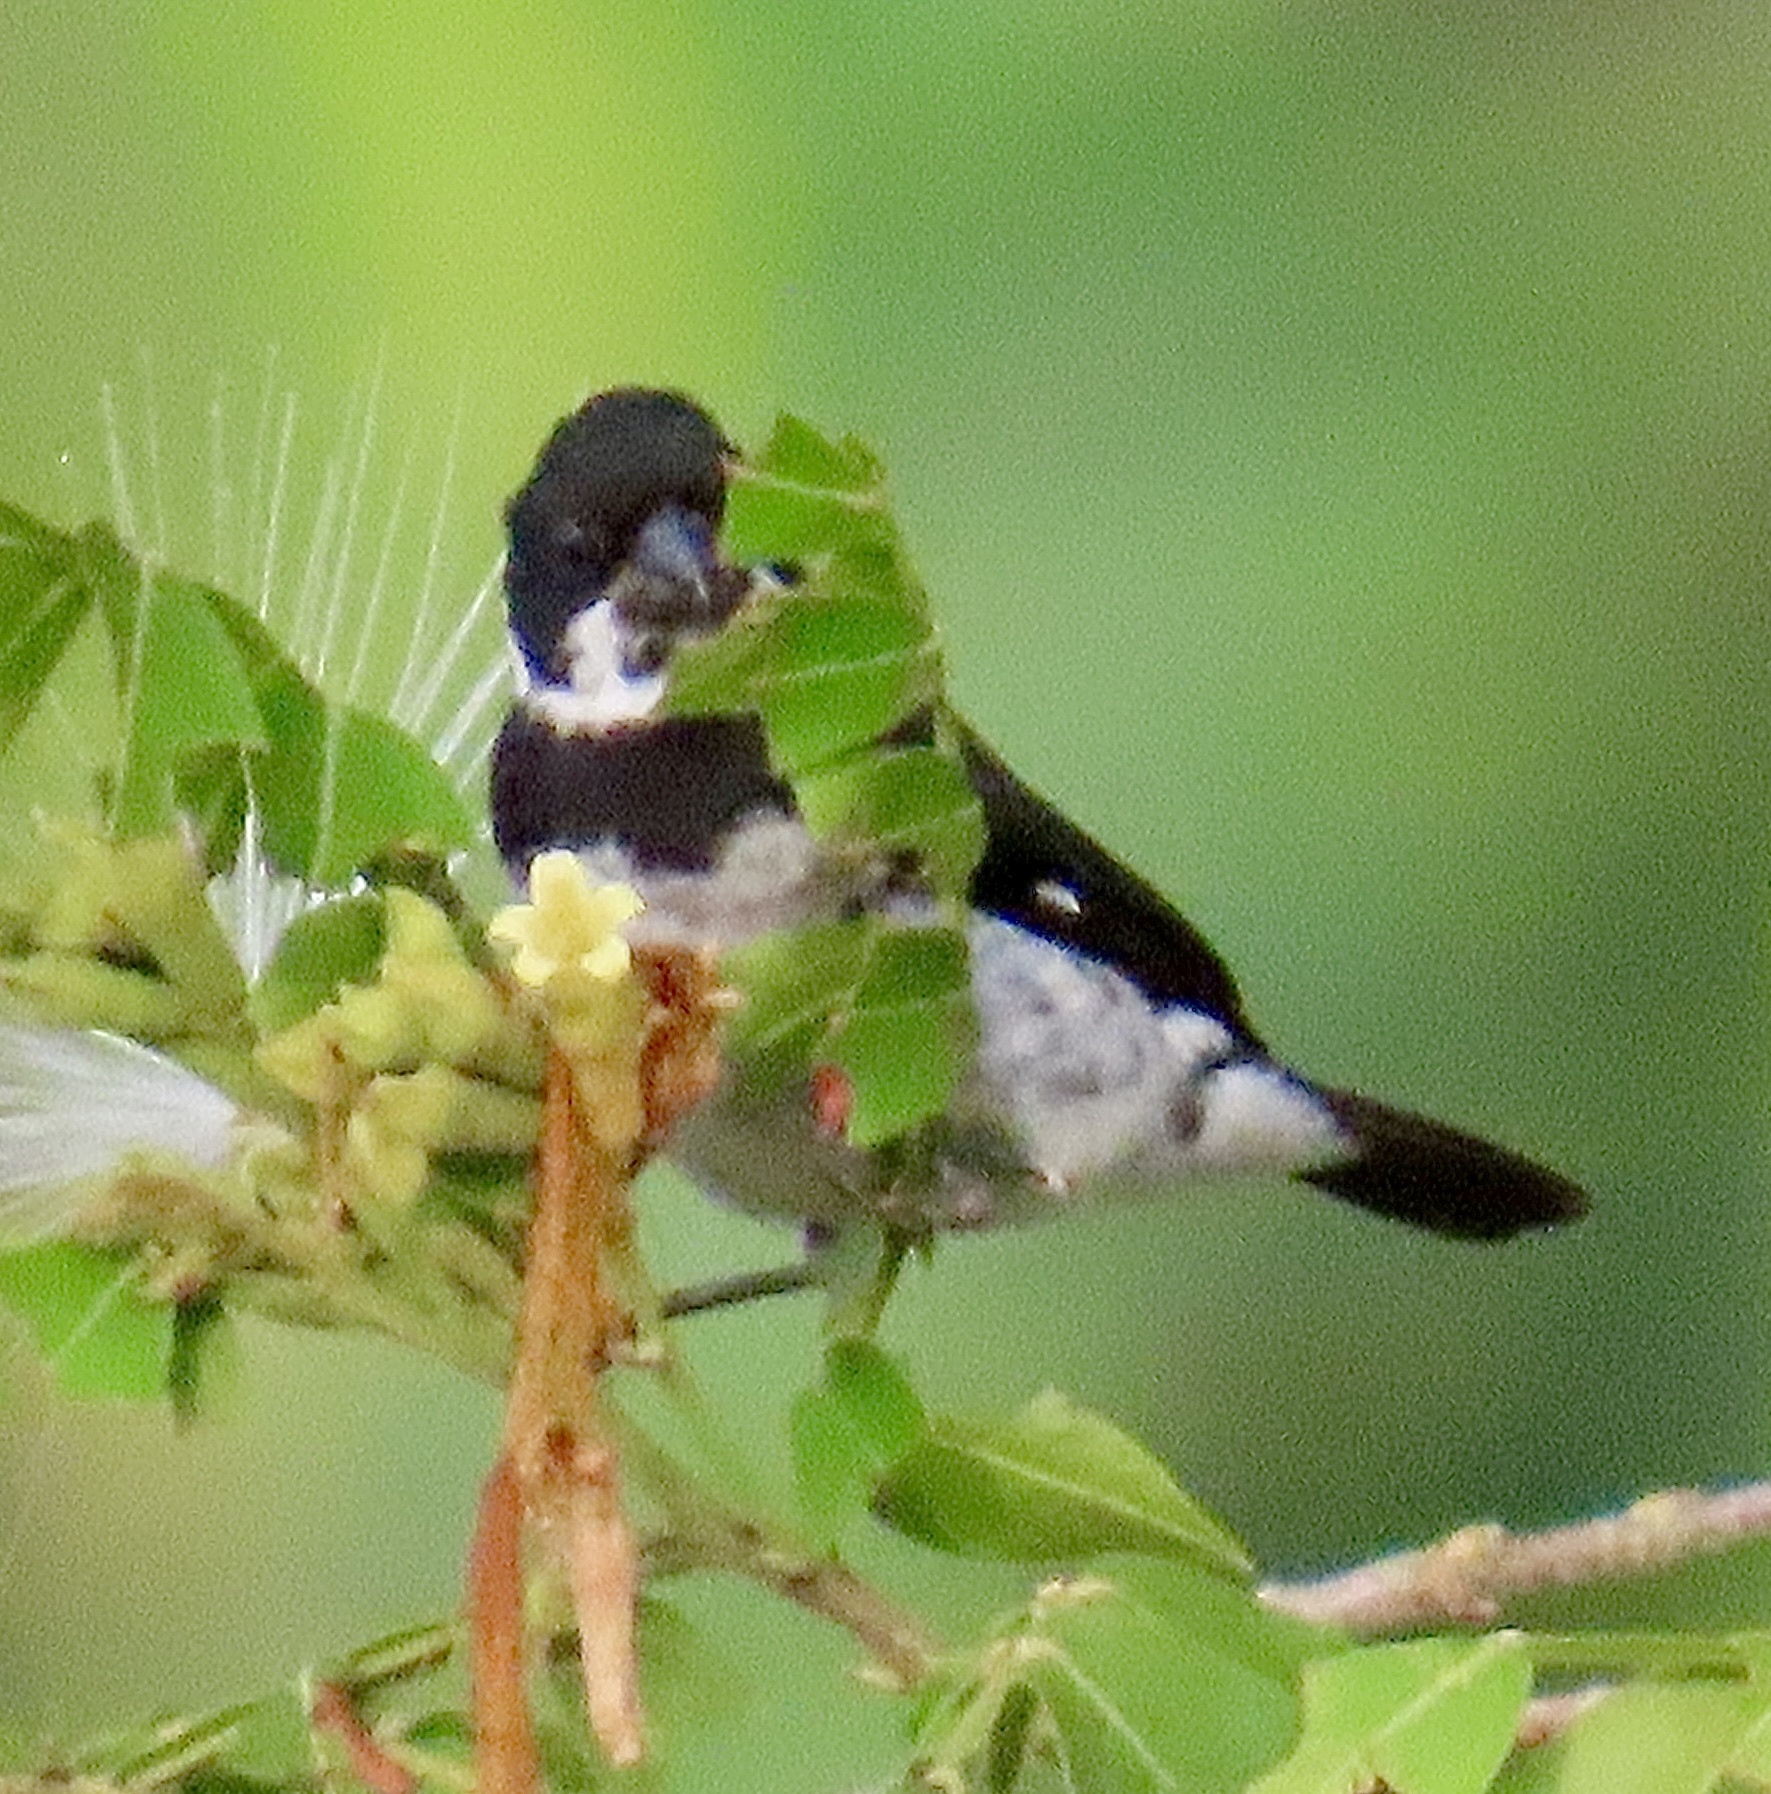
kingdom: Animalia
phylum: Chordata
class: Aves
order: Passeriformes
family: Thraupidae
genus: Sporophila
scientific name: Sporophila corvina
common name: Variable seedeater
